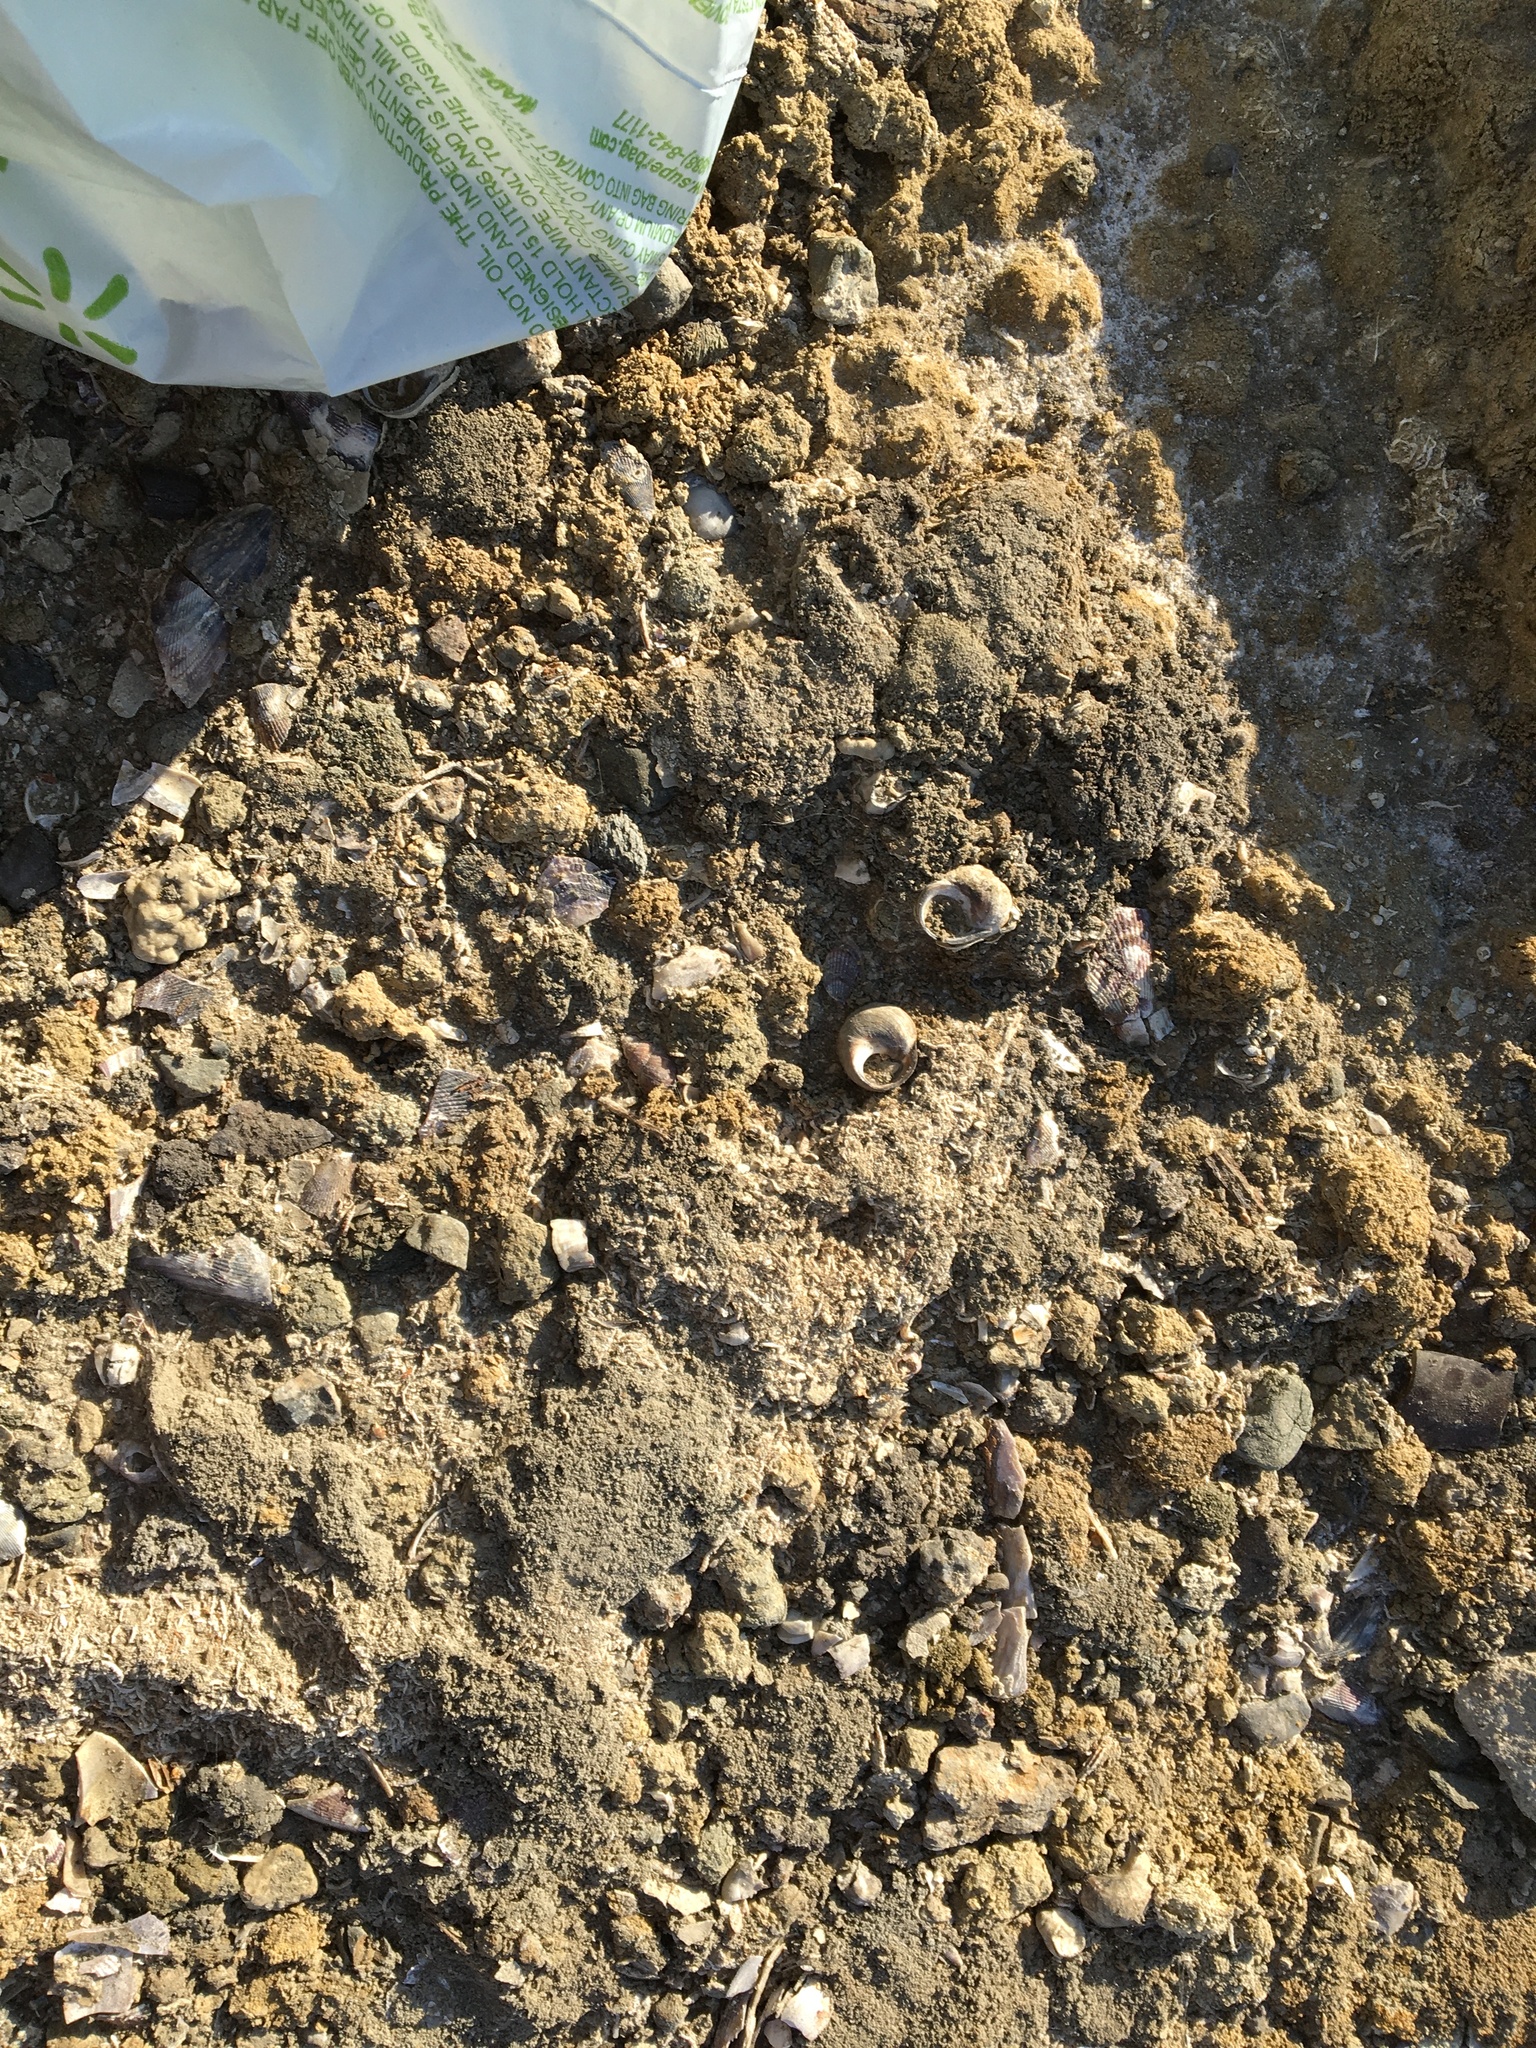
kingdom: Animalia
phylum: Mollusca
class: Gastropoda
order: Littorinimorpha
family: Littorinidae
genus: Littorina
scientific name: Littorina littorea
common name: Common periwinkle
